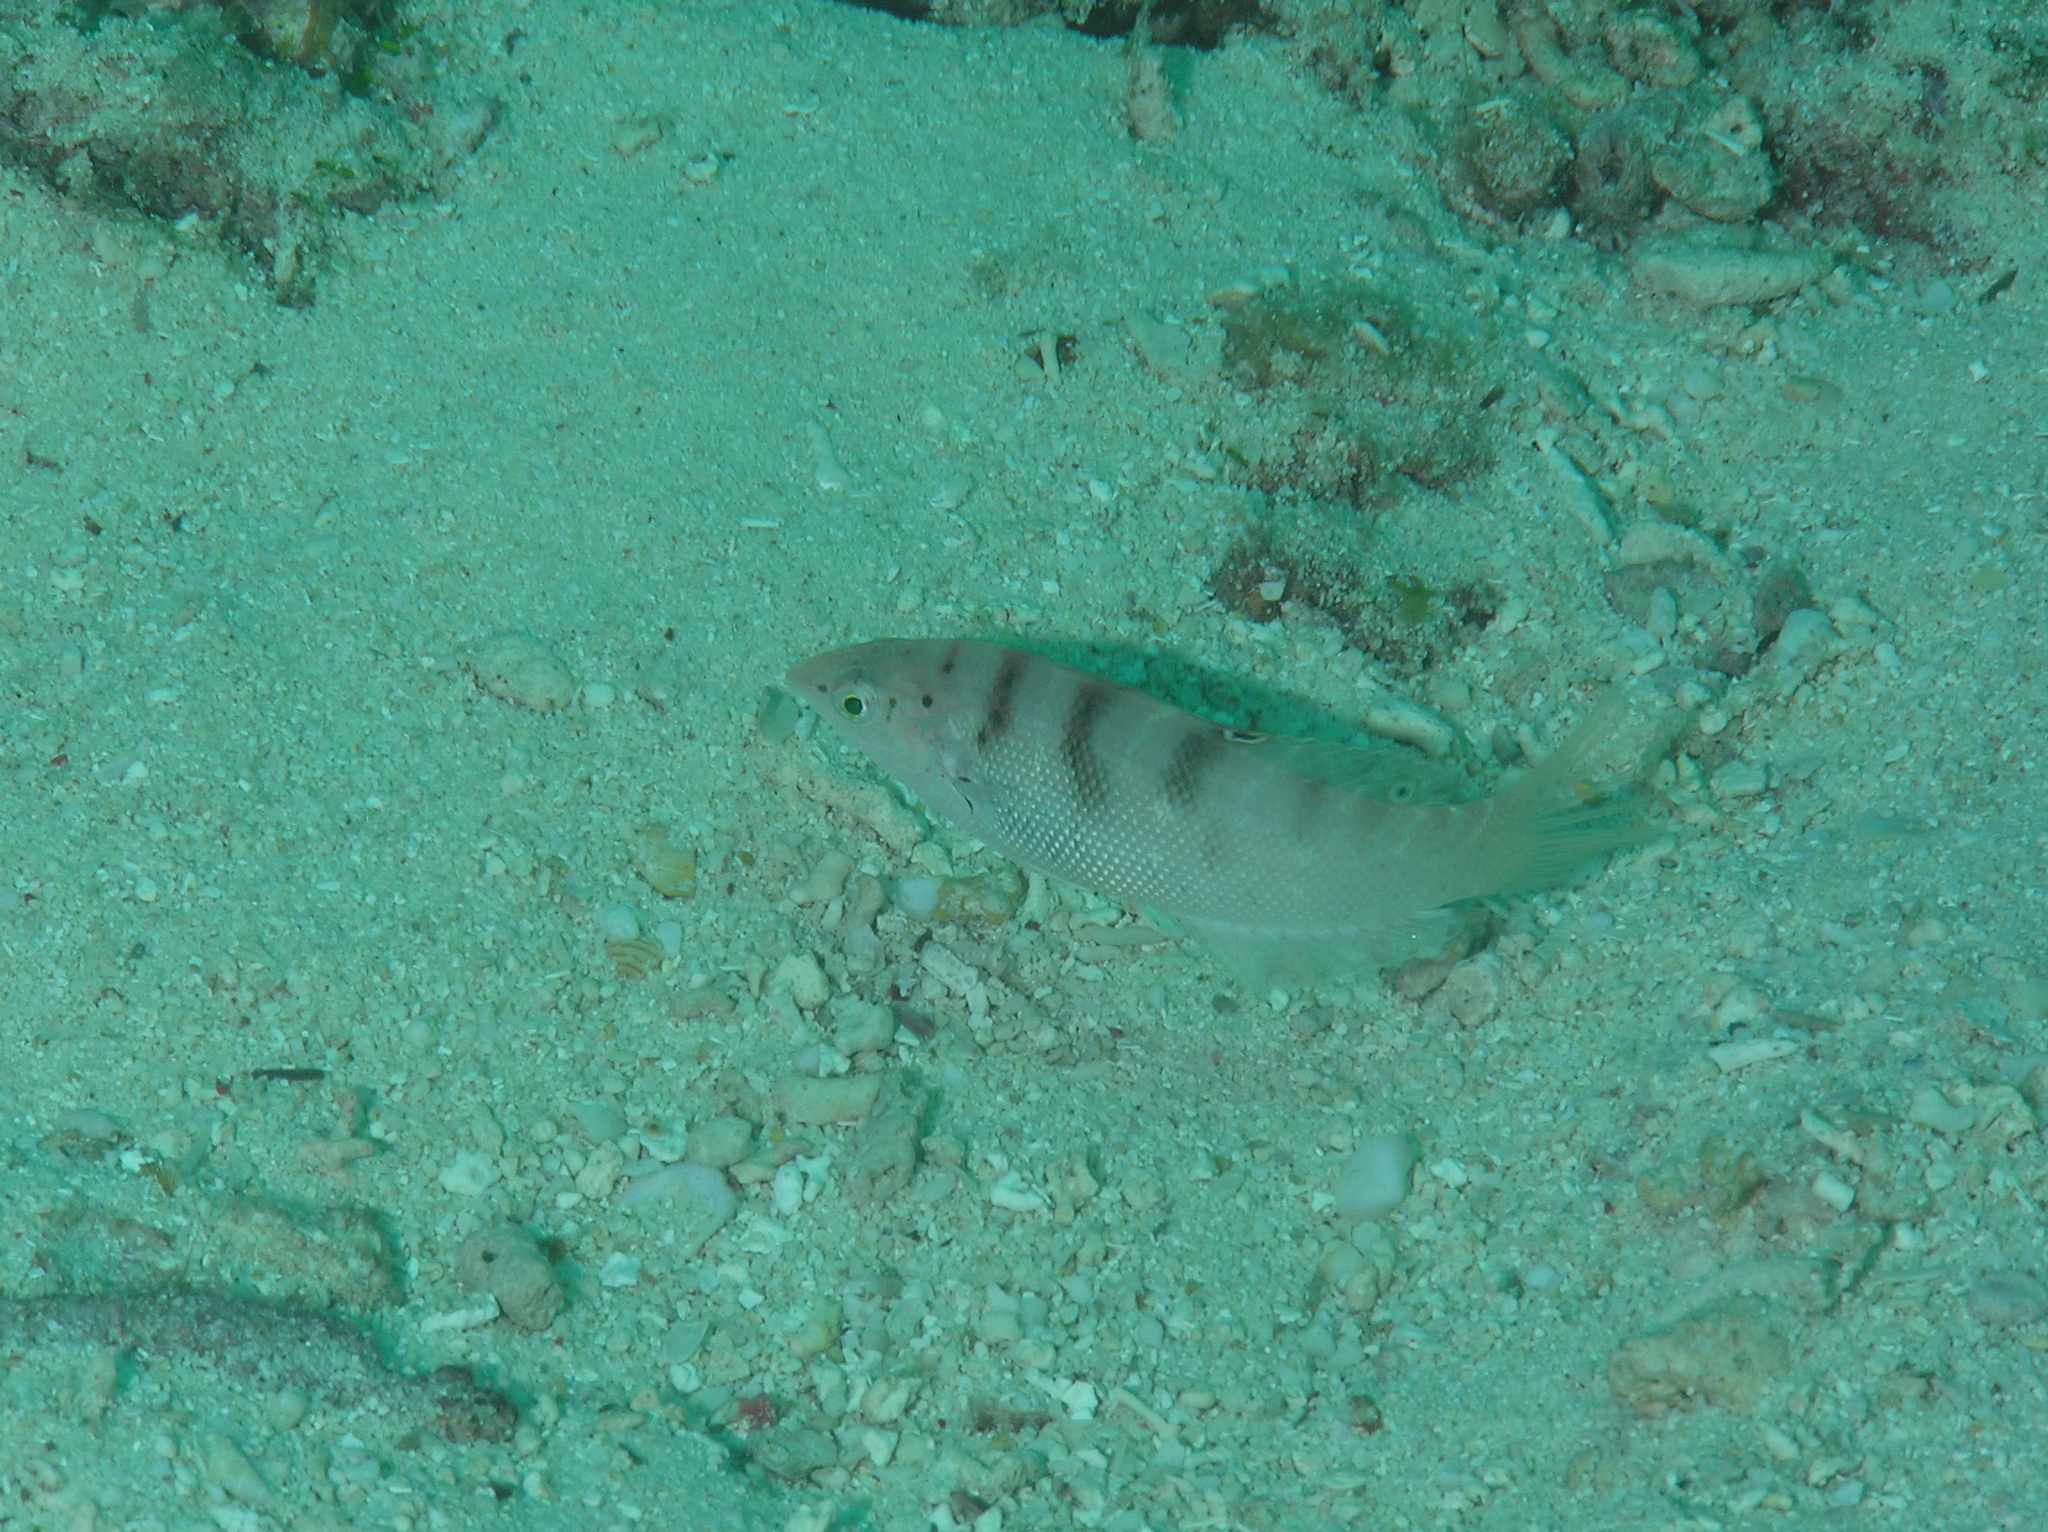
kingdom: Animalia
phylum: Chordata
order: Perciformes
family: Labridae
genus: Coris
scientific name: Coris batuensis
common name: Batu coris
